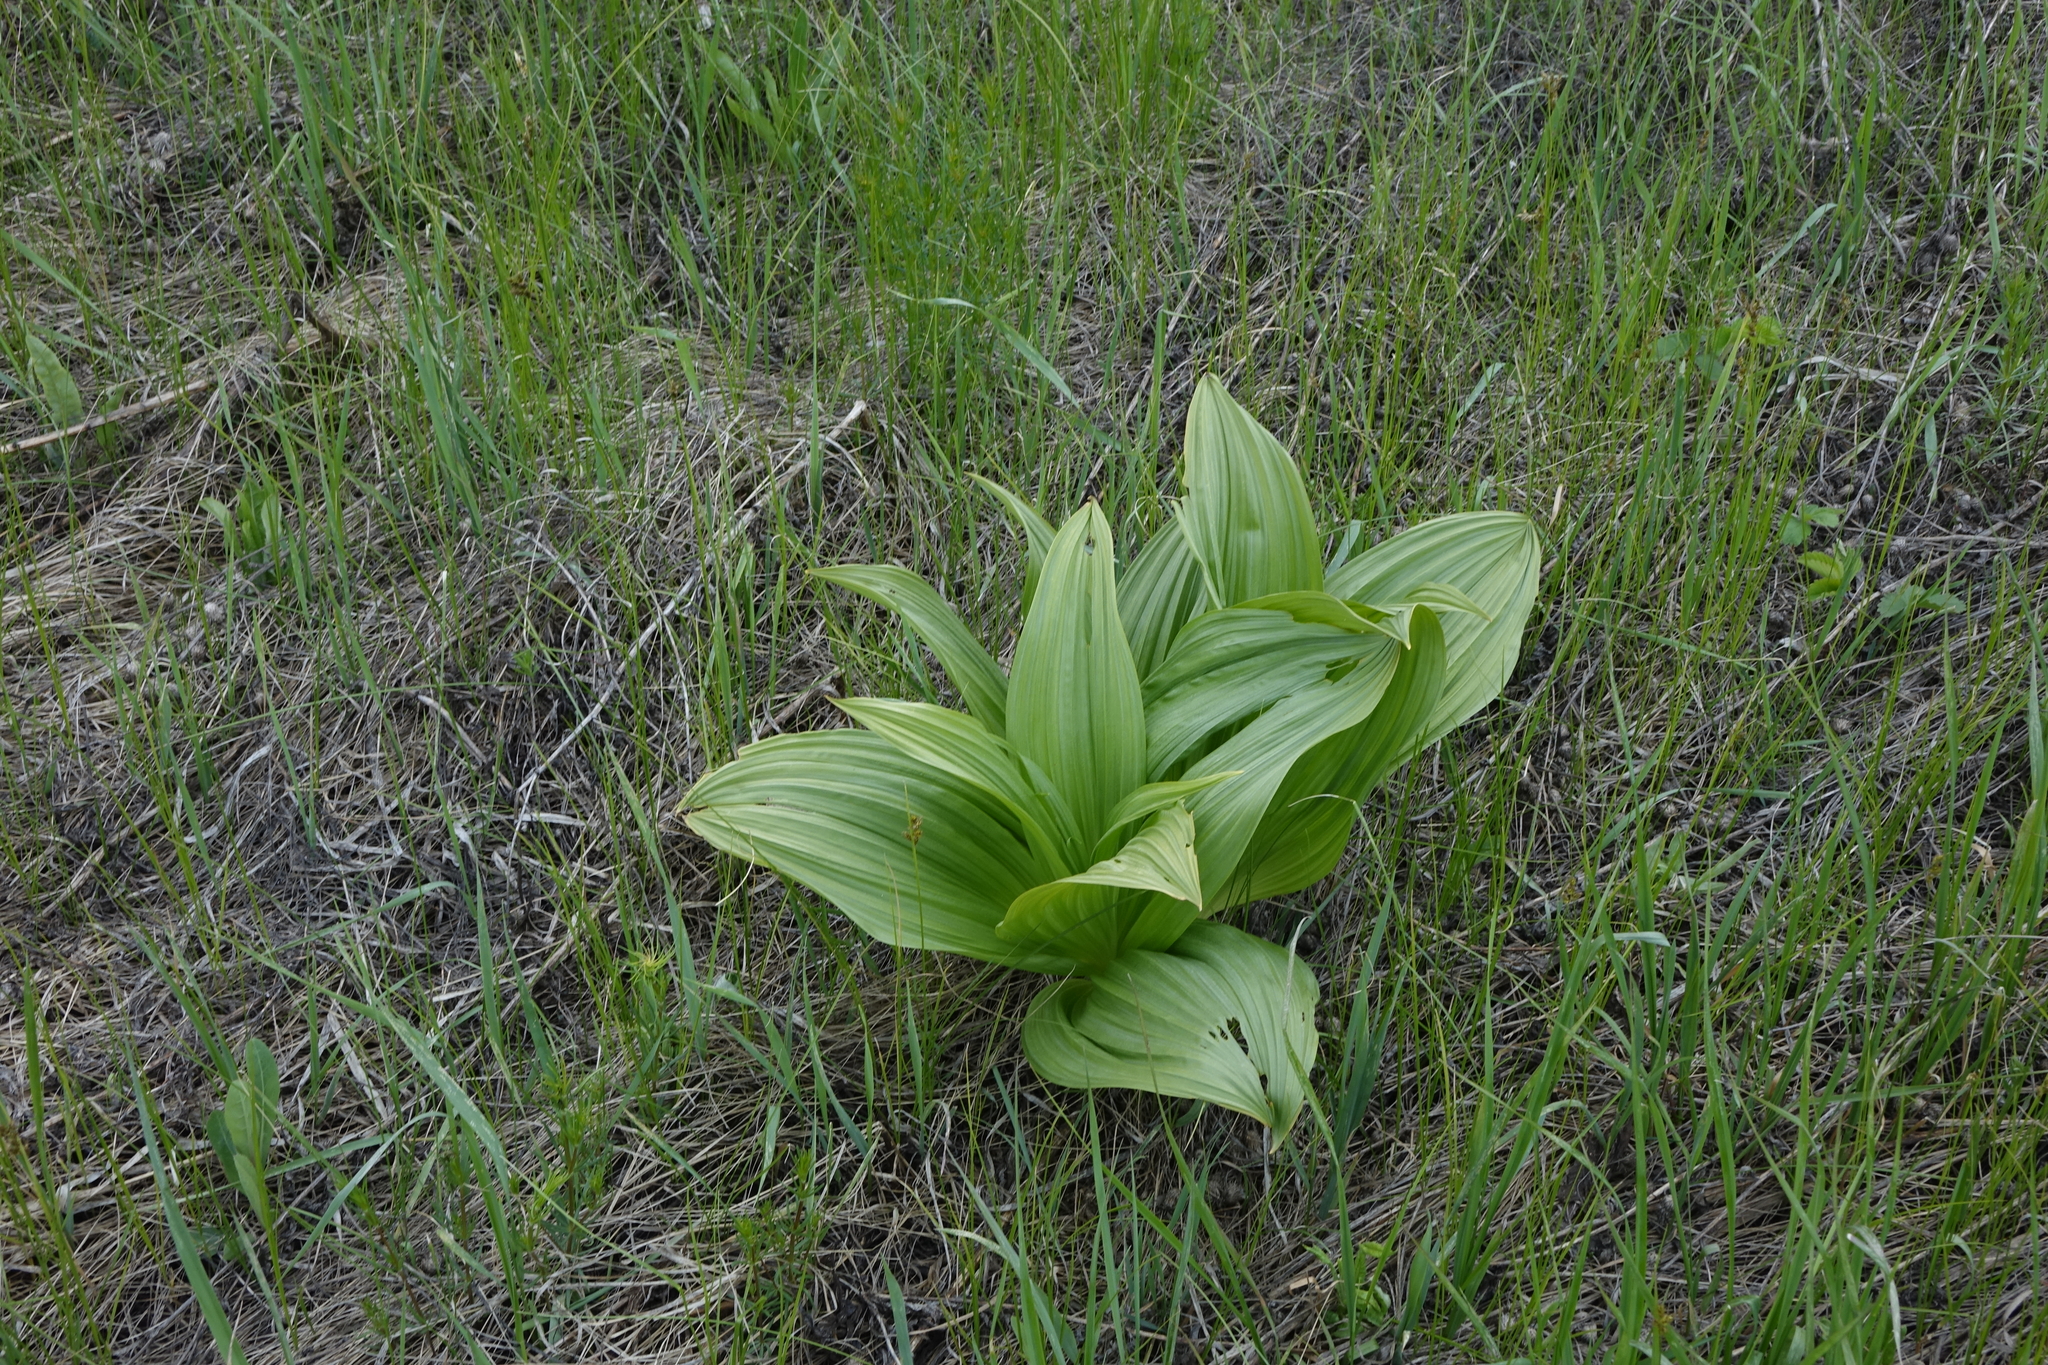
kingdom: Plantae
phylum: Tracheophyta
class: Liliopsida
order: Liliales
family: Melanthiaceae
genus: Veratrum
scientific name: Veratrum lobelianum
